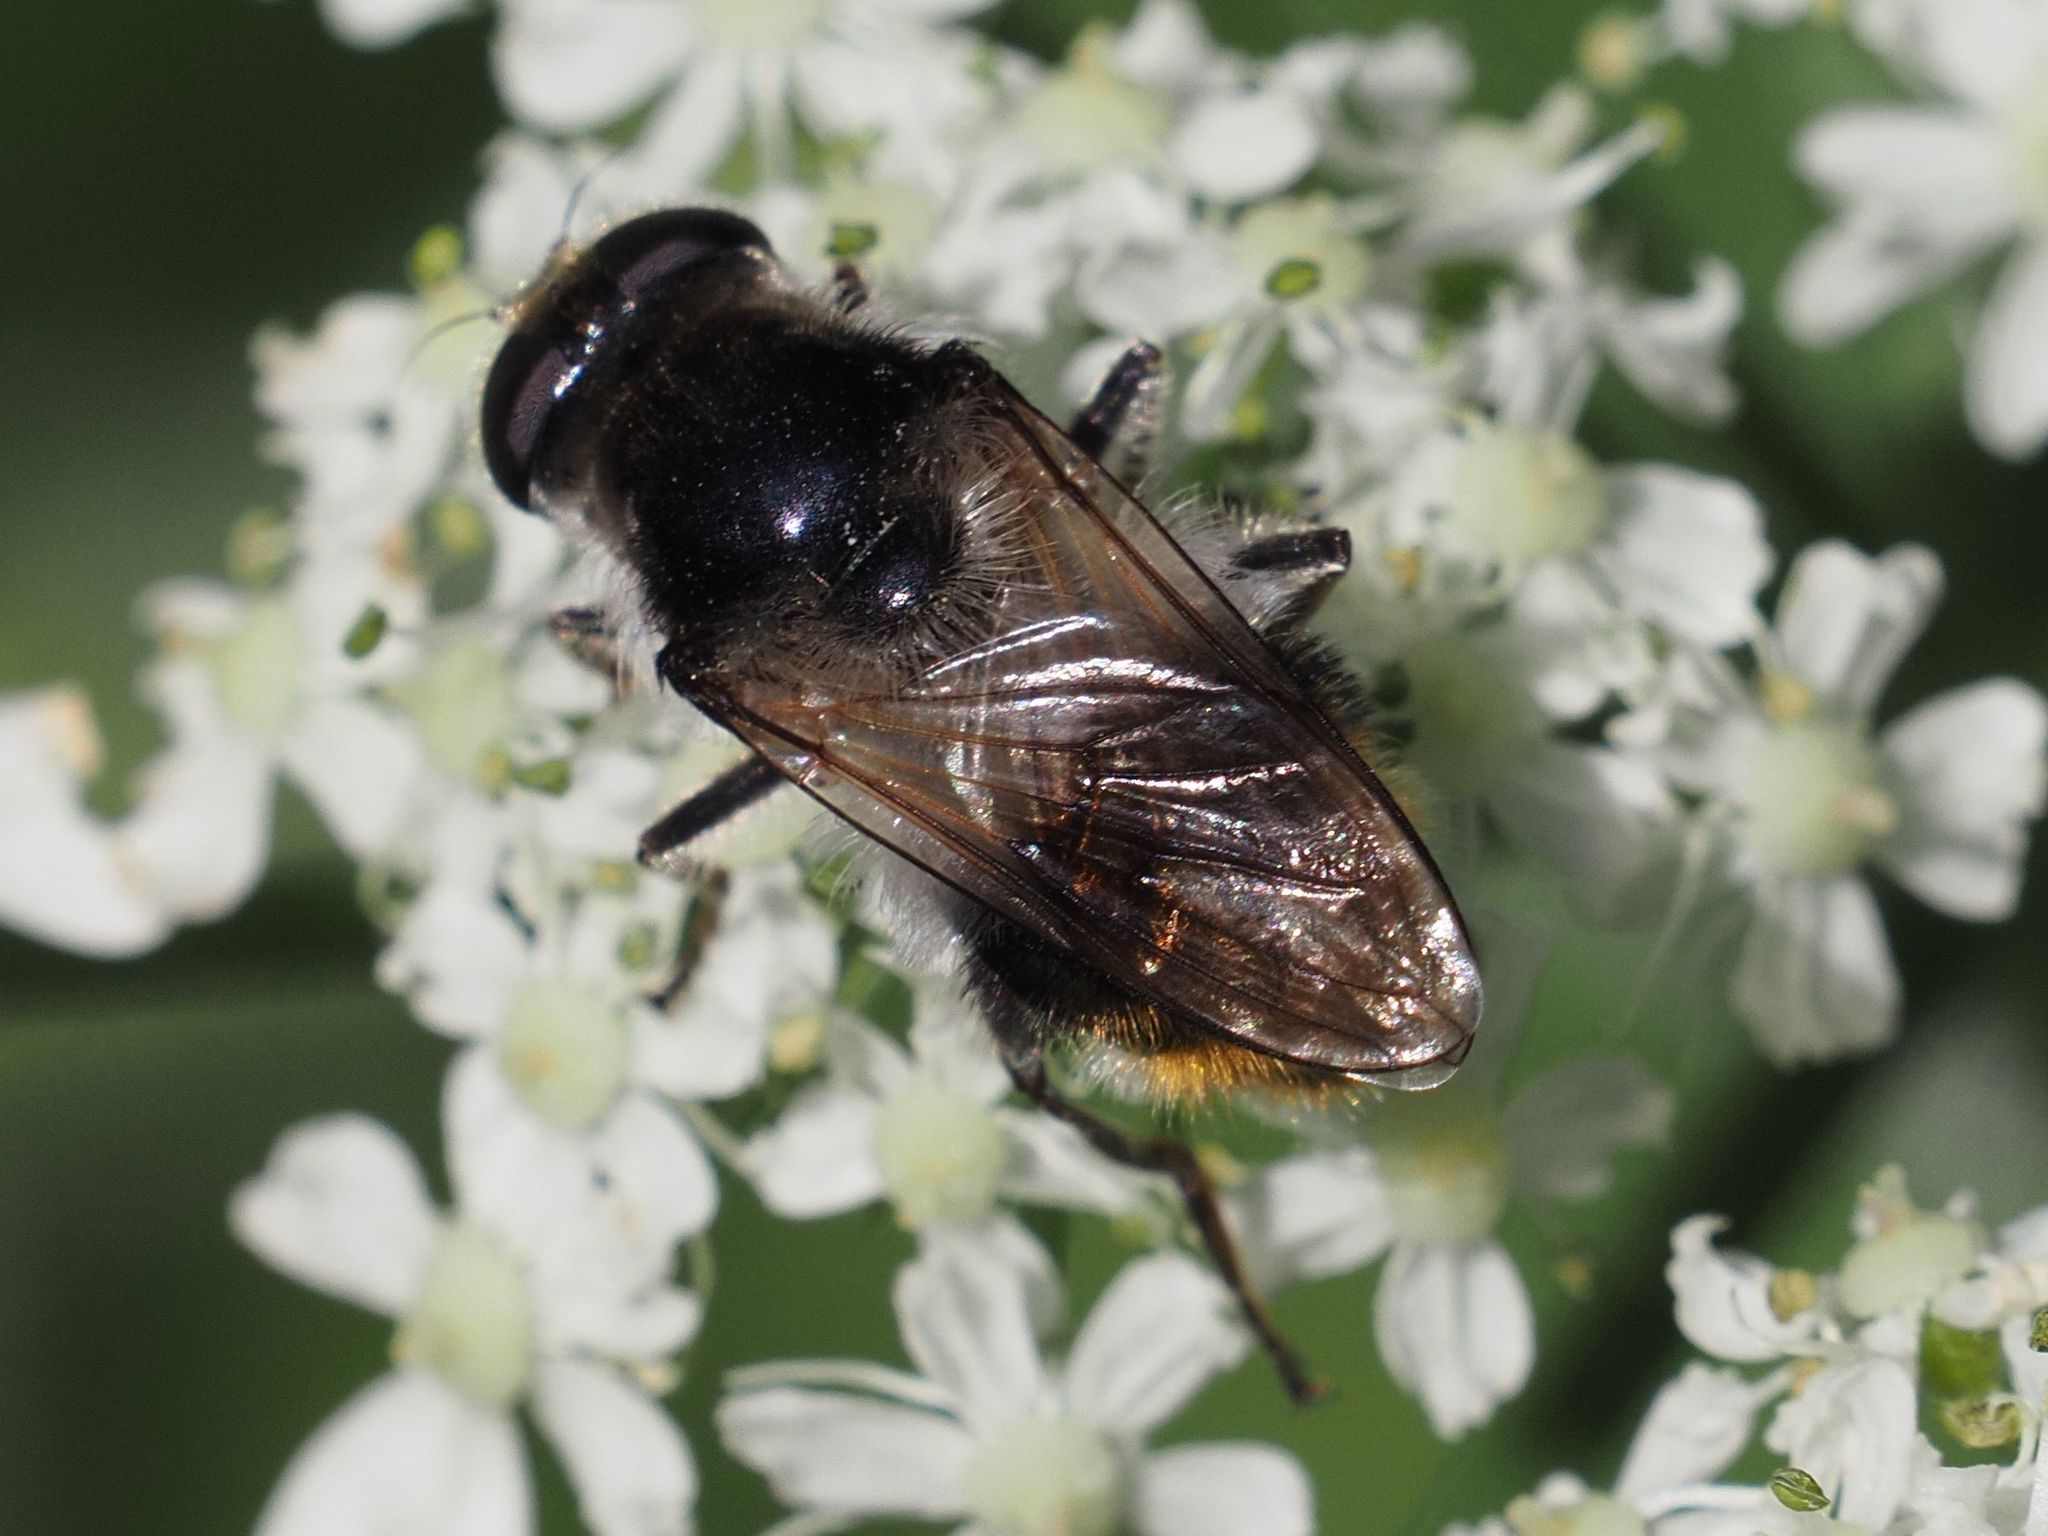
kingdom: Animalia
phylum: Arthropoda
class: Insecta
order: Diptera
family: Syrphidae
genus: Cheilosia
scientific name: Cheilosia illustrata
